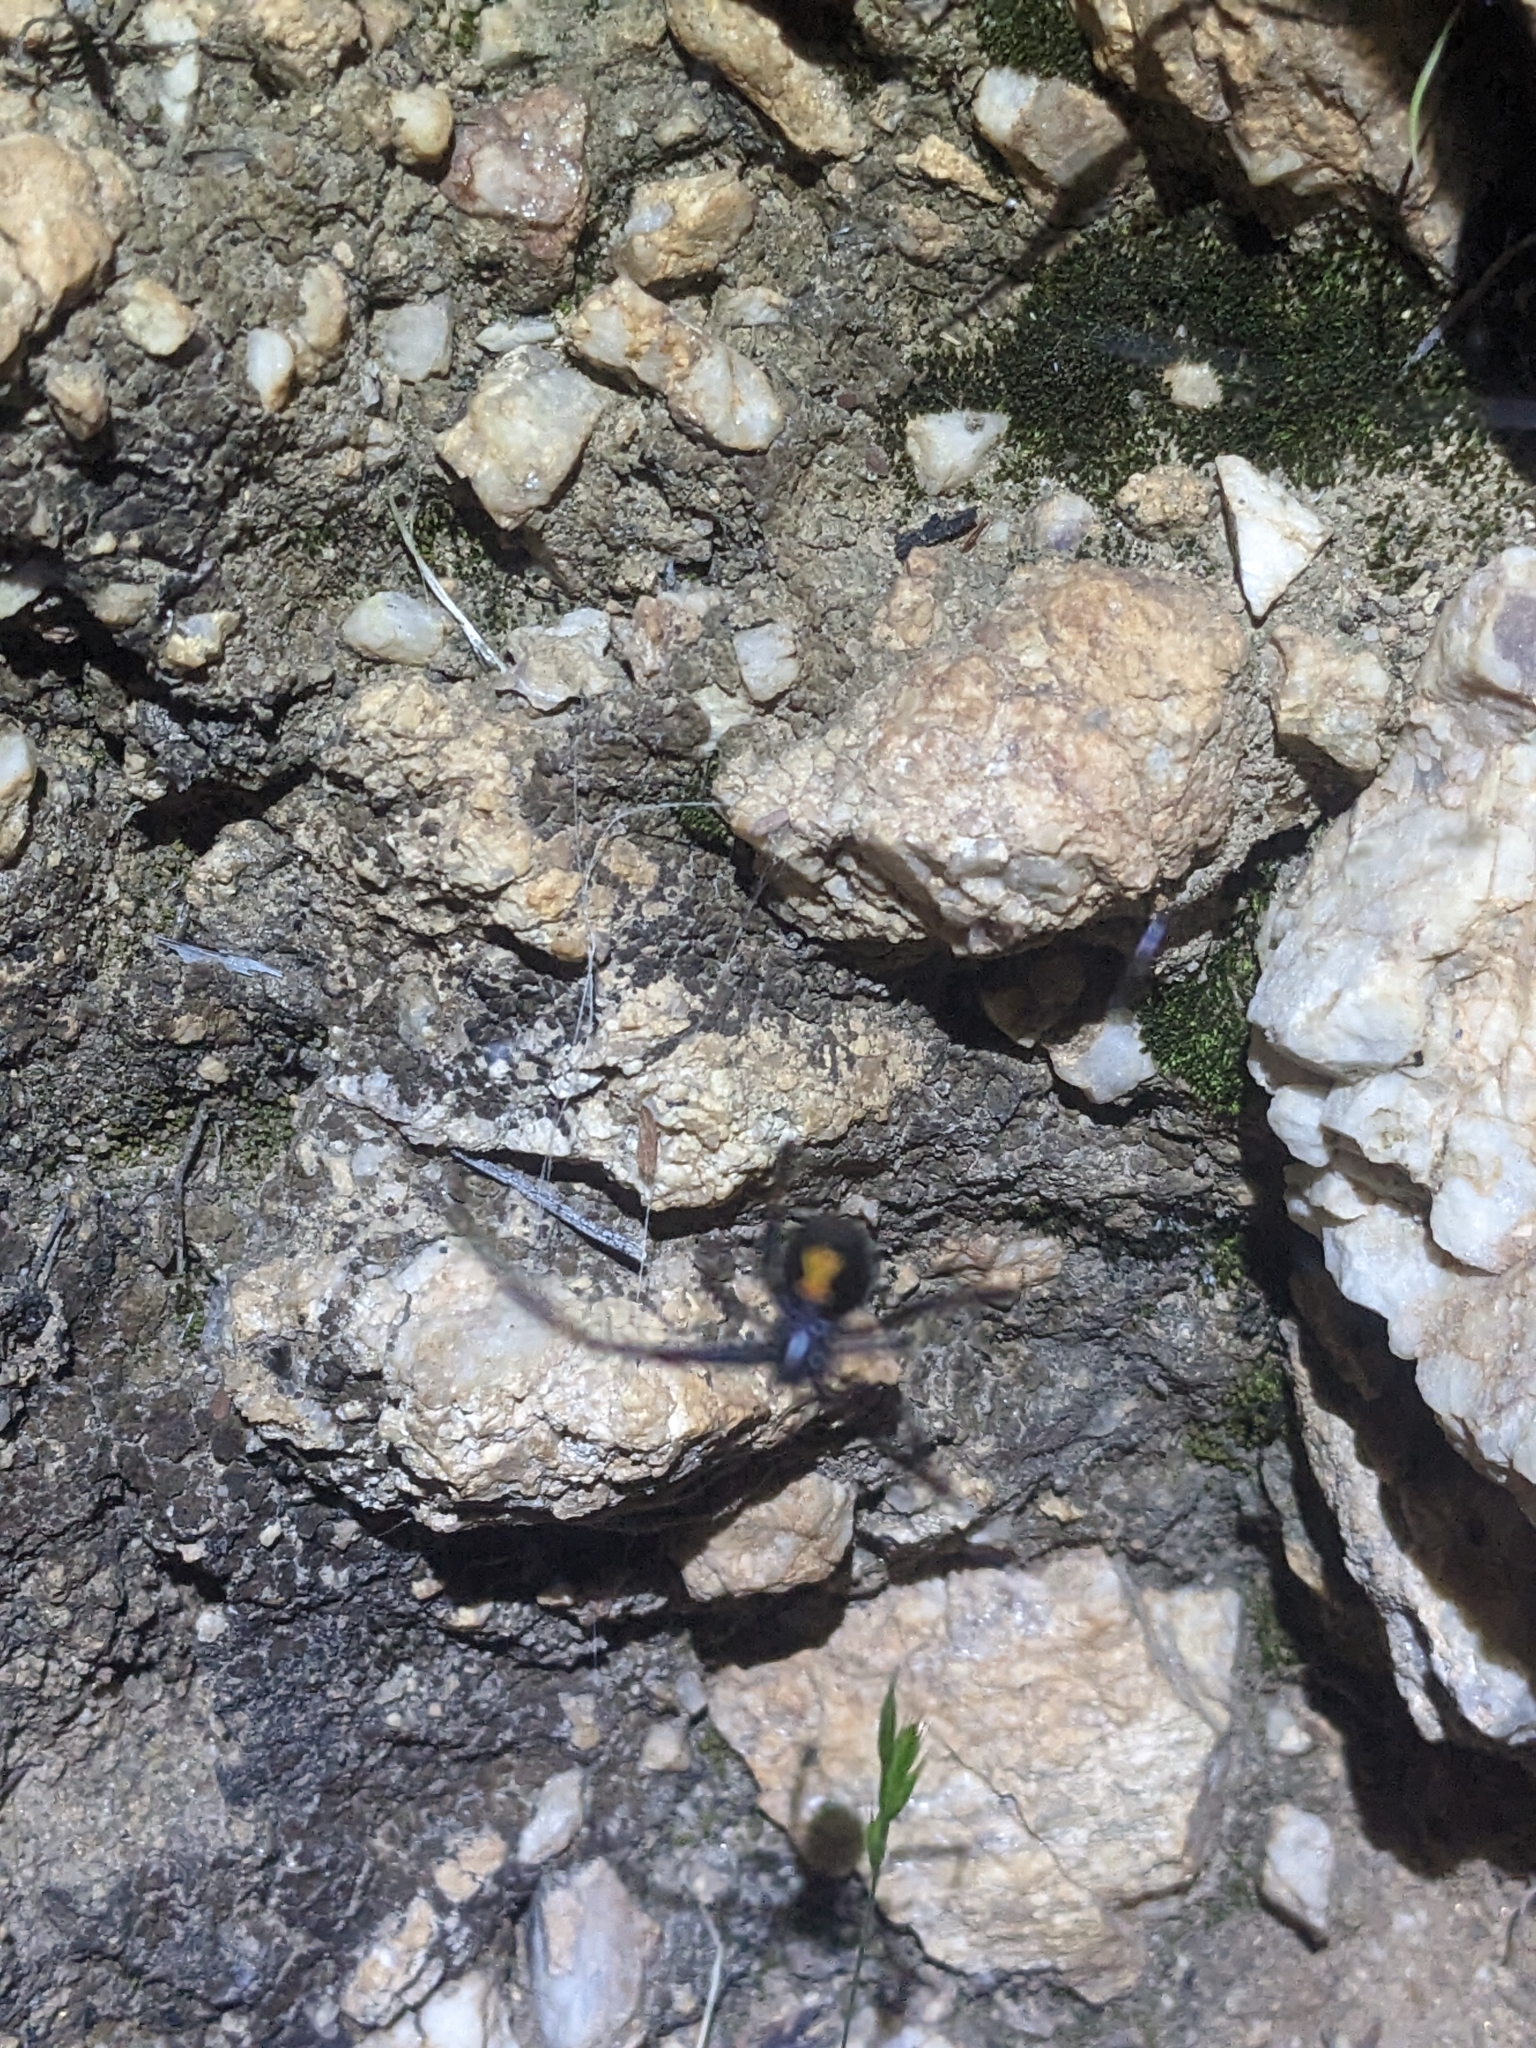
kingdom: Animalia
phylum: Arthropoda
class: Arachnida
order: Araneae
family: Theridiidae
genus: Latrodectus
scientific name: Latrodectus hesperus
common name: Western black widow
